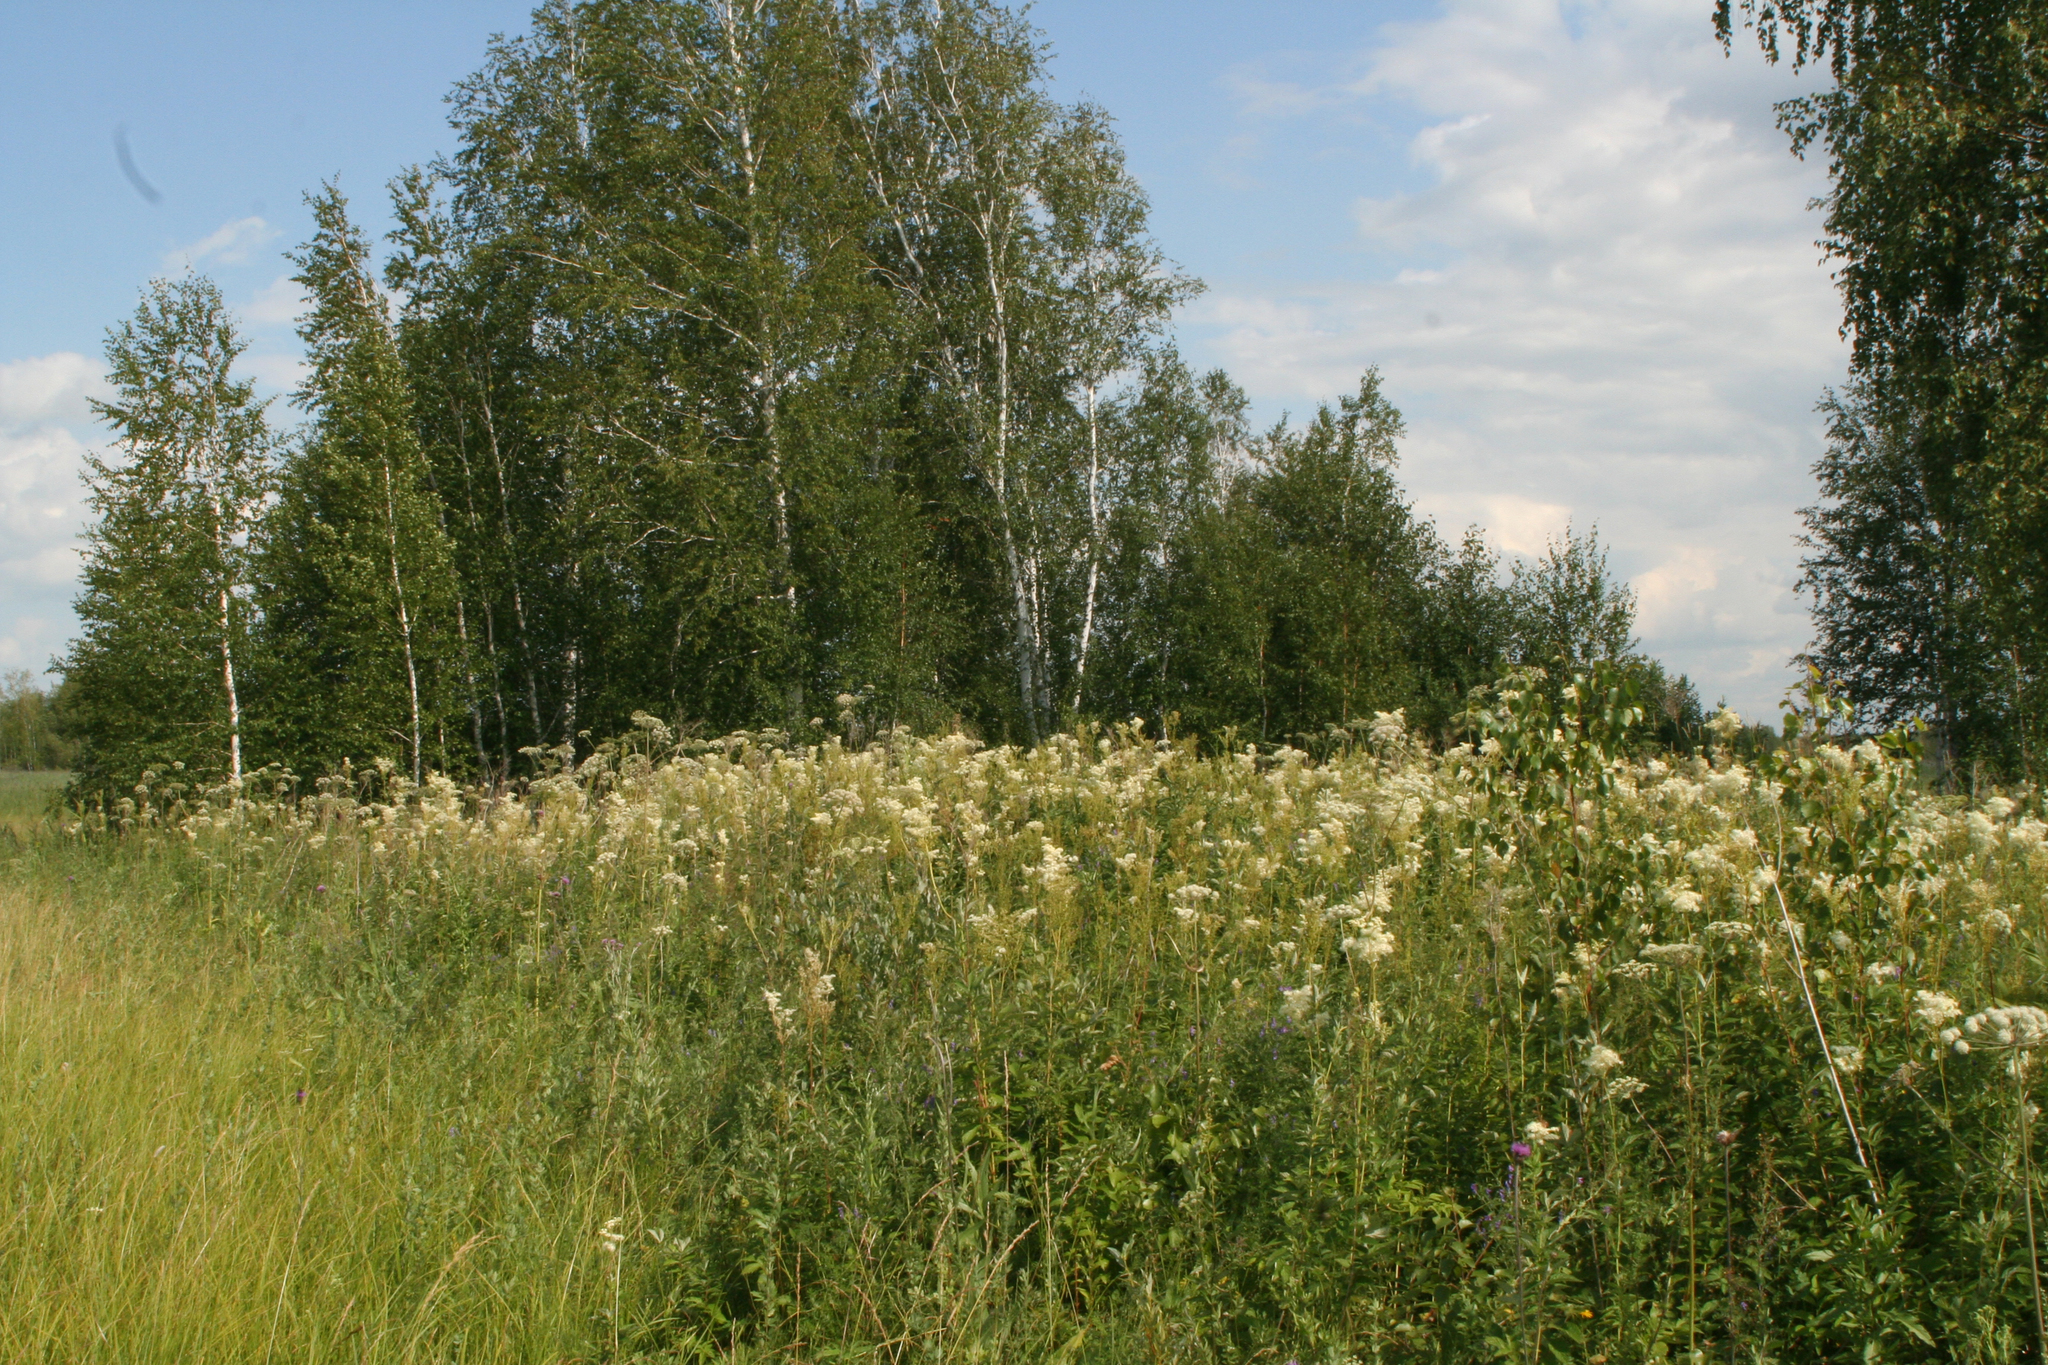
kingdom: Plantae
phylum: Tracheophyta
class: Magnoliopsida
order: Rosales
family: Rosaceae
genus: Filipendula
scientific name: Filipendula ulmaria
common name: Meadowsweet
